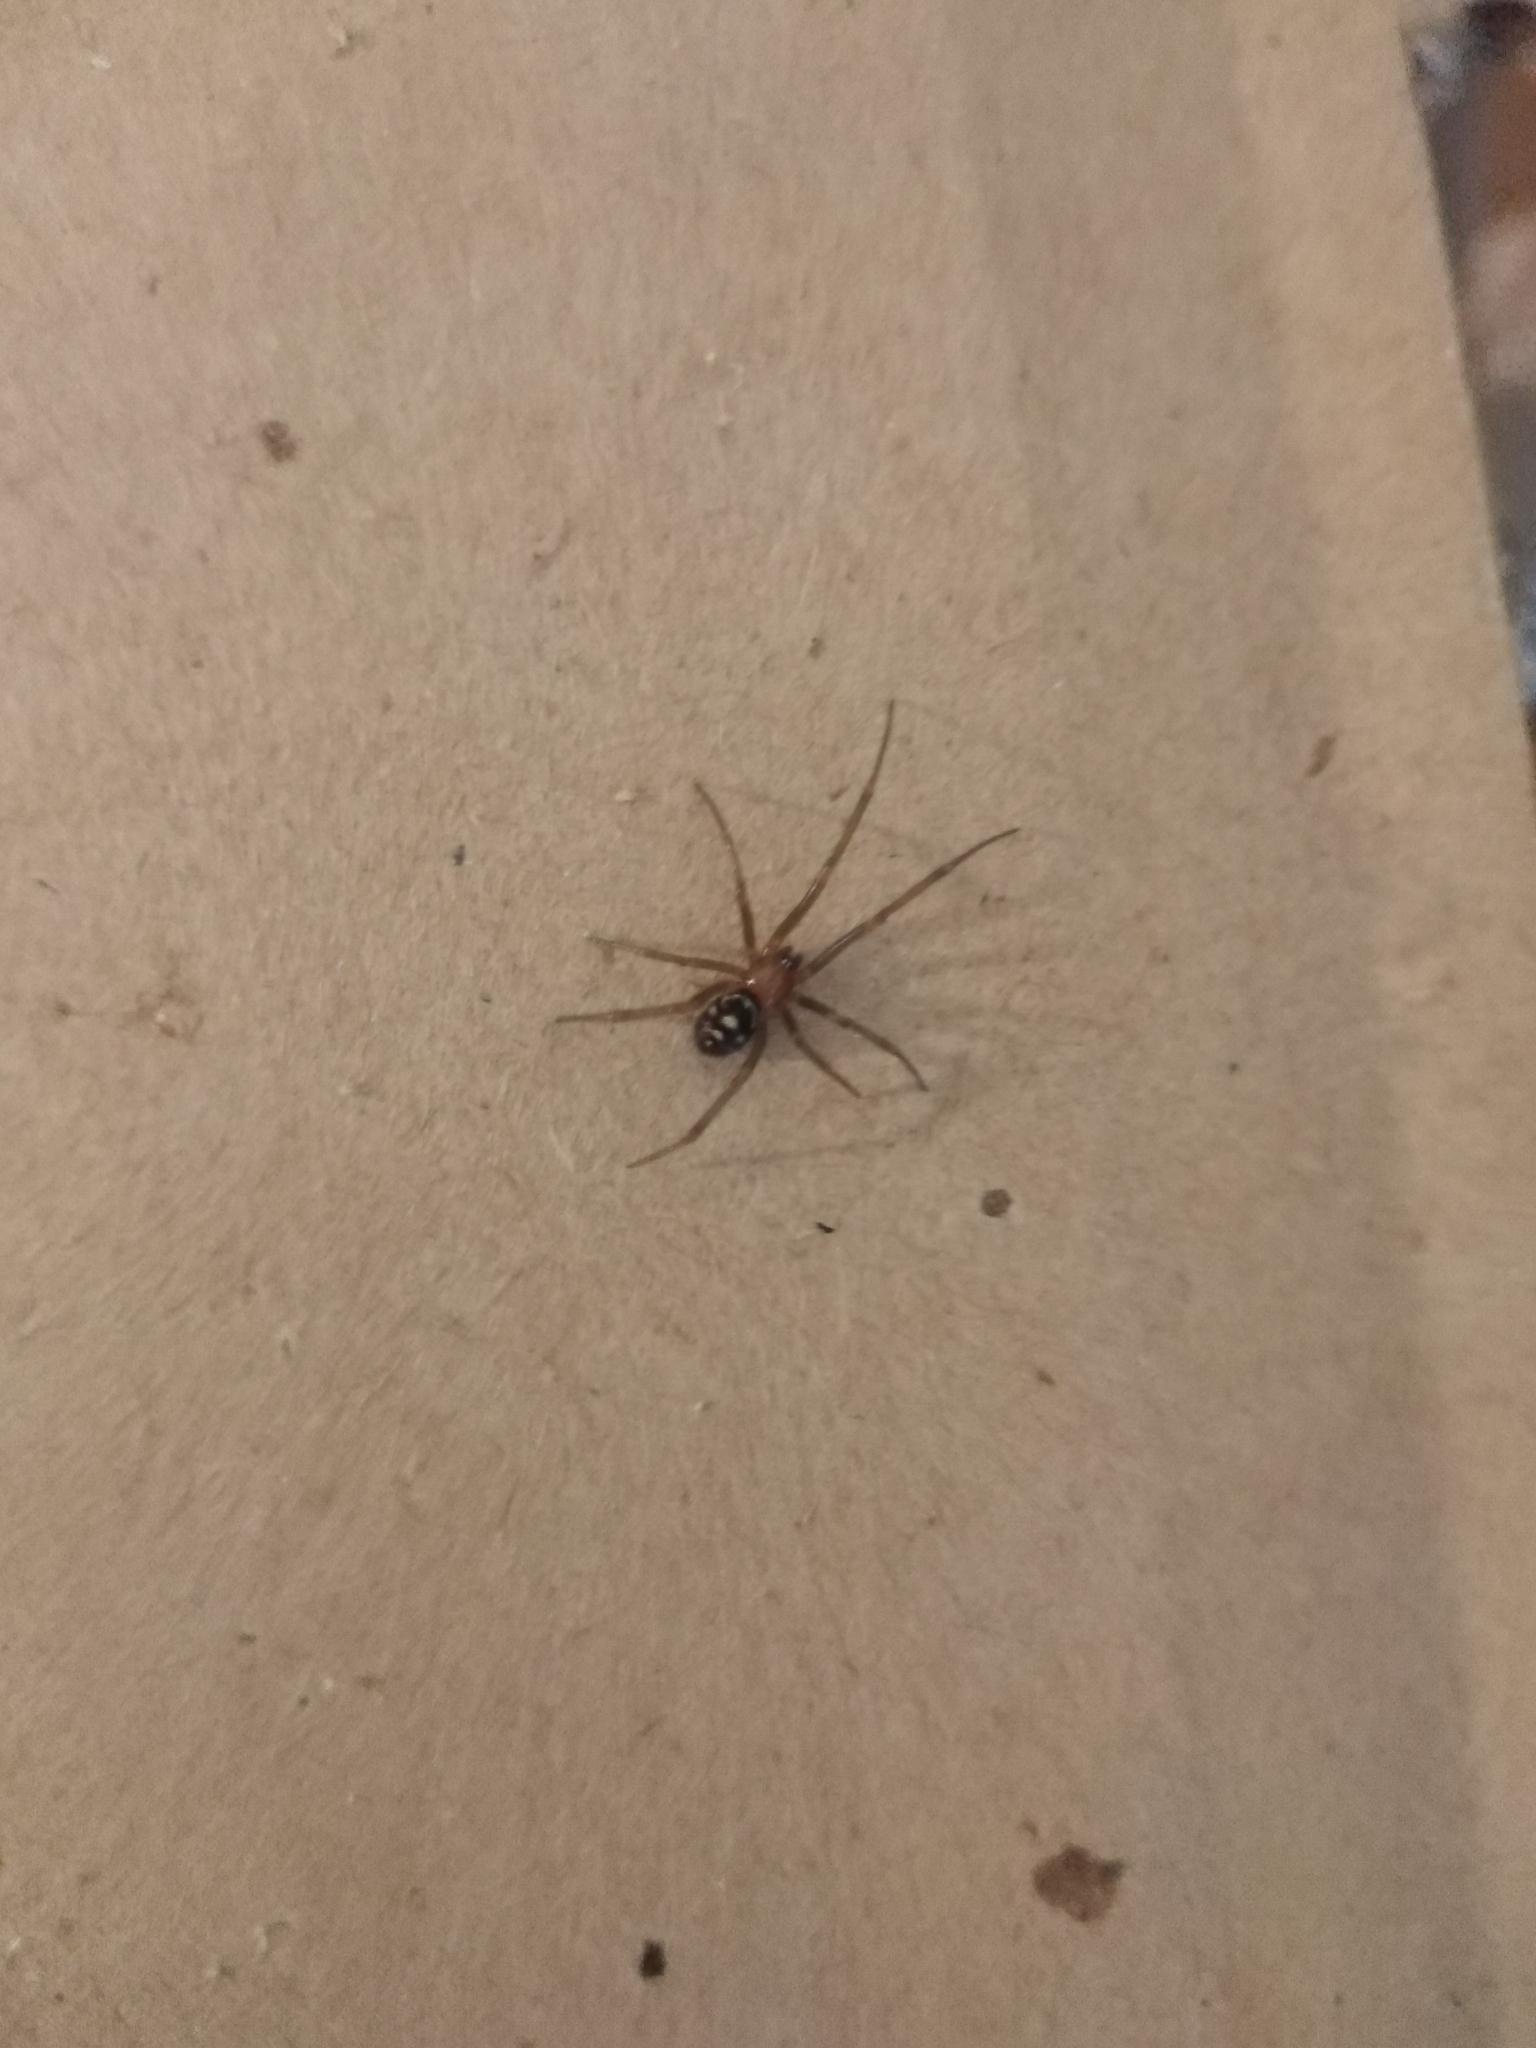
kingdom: Animalia
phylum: Arthropoda
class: Arachnida
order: Araneae
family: Theridiidae
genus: Steatoda
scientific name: Steatoda grossa
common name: False black widow
